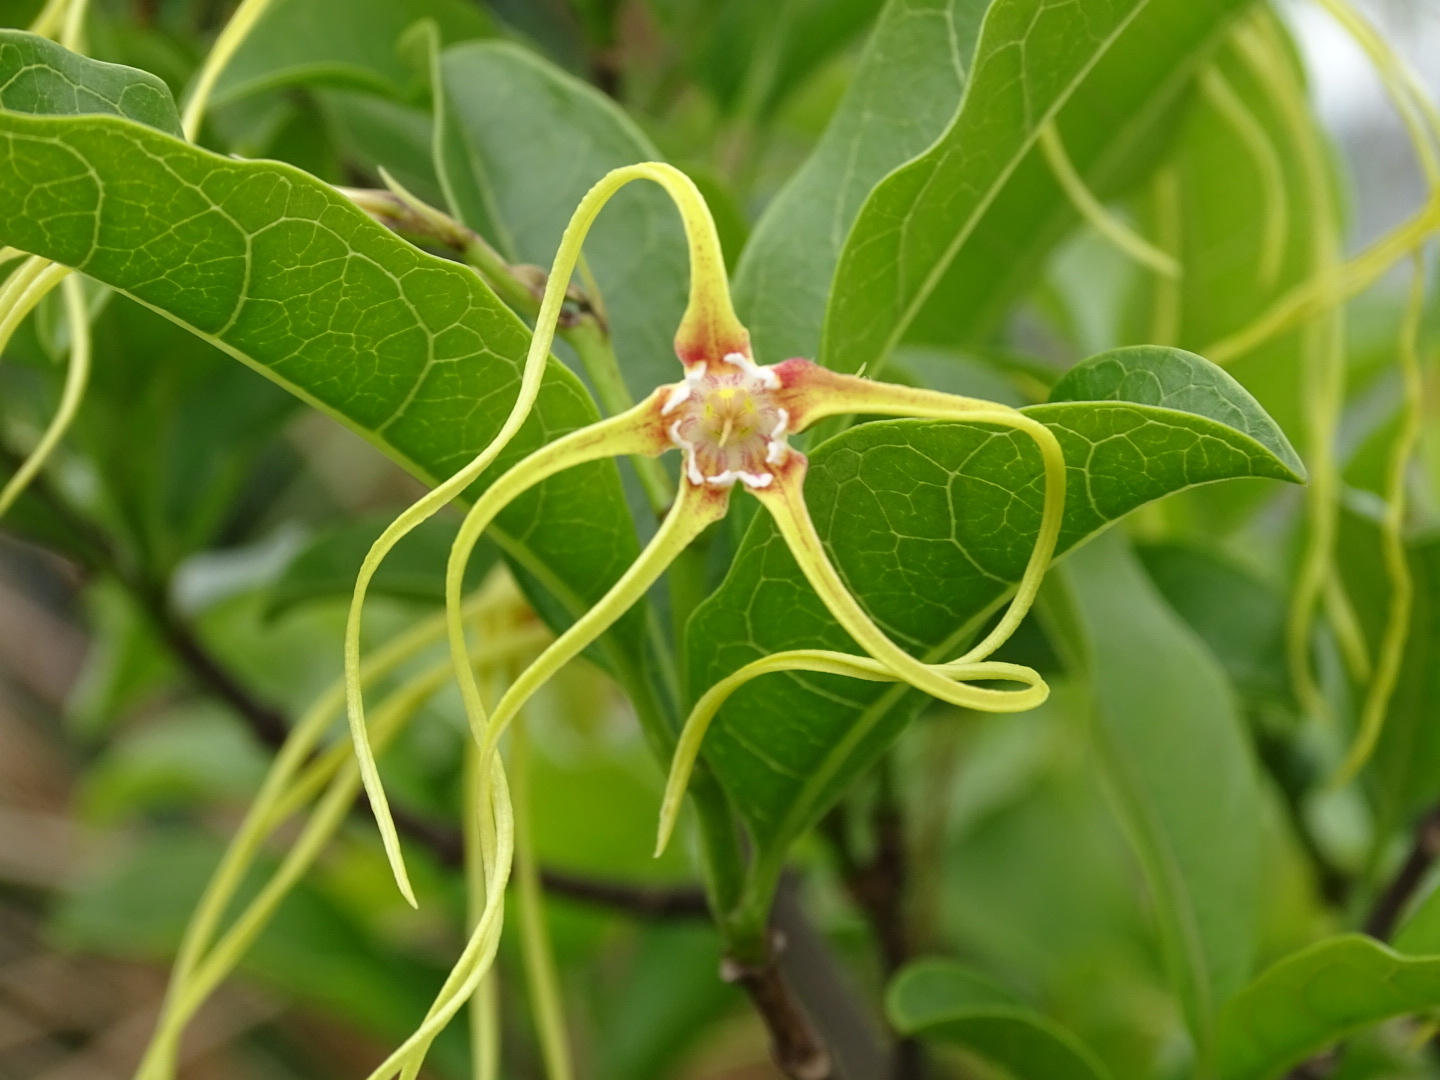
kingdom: Plantae
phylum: Tracheophyta
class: Magnoliopsida
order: Gentianales
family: Apocynaceae
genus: Strophanthus
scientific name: Strophanthus divaricatus
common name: Goat-horns
